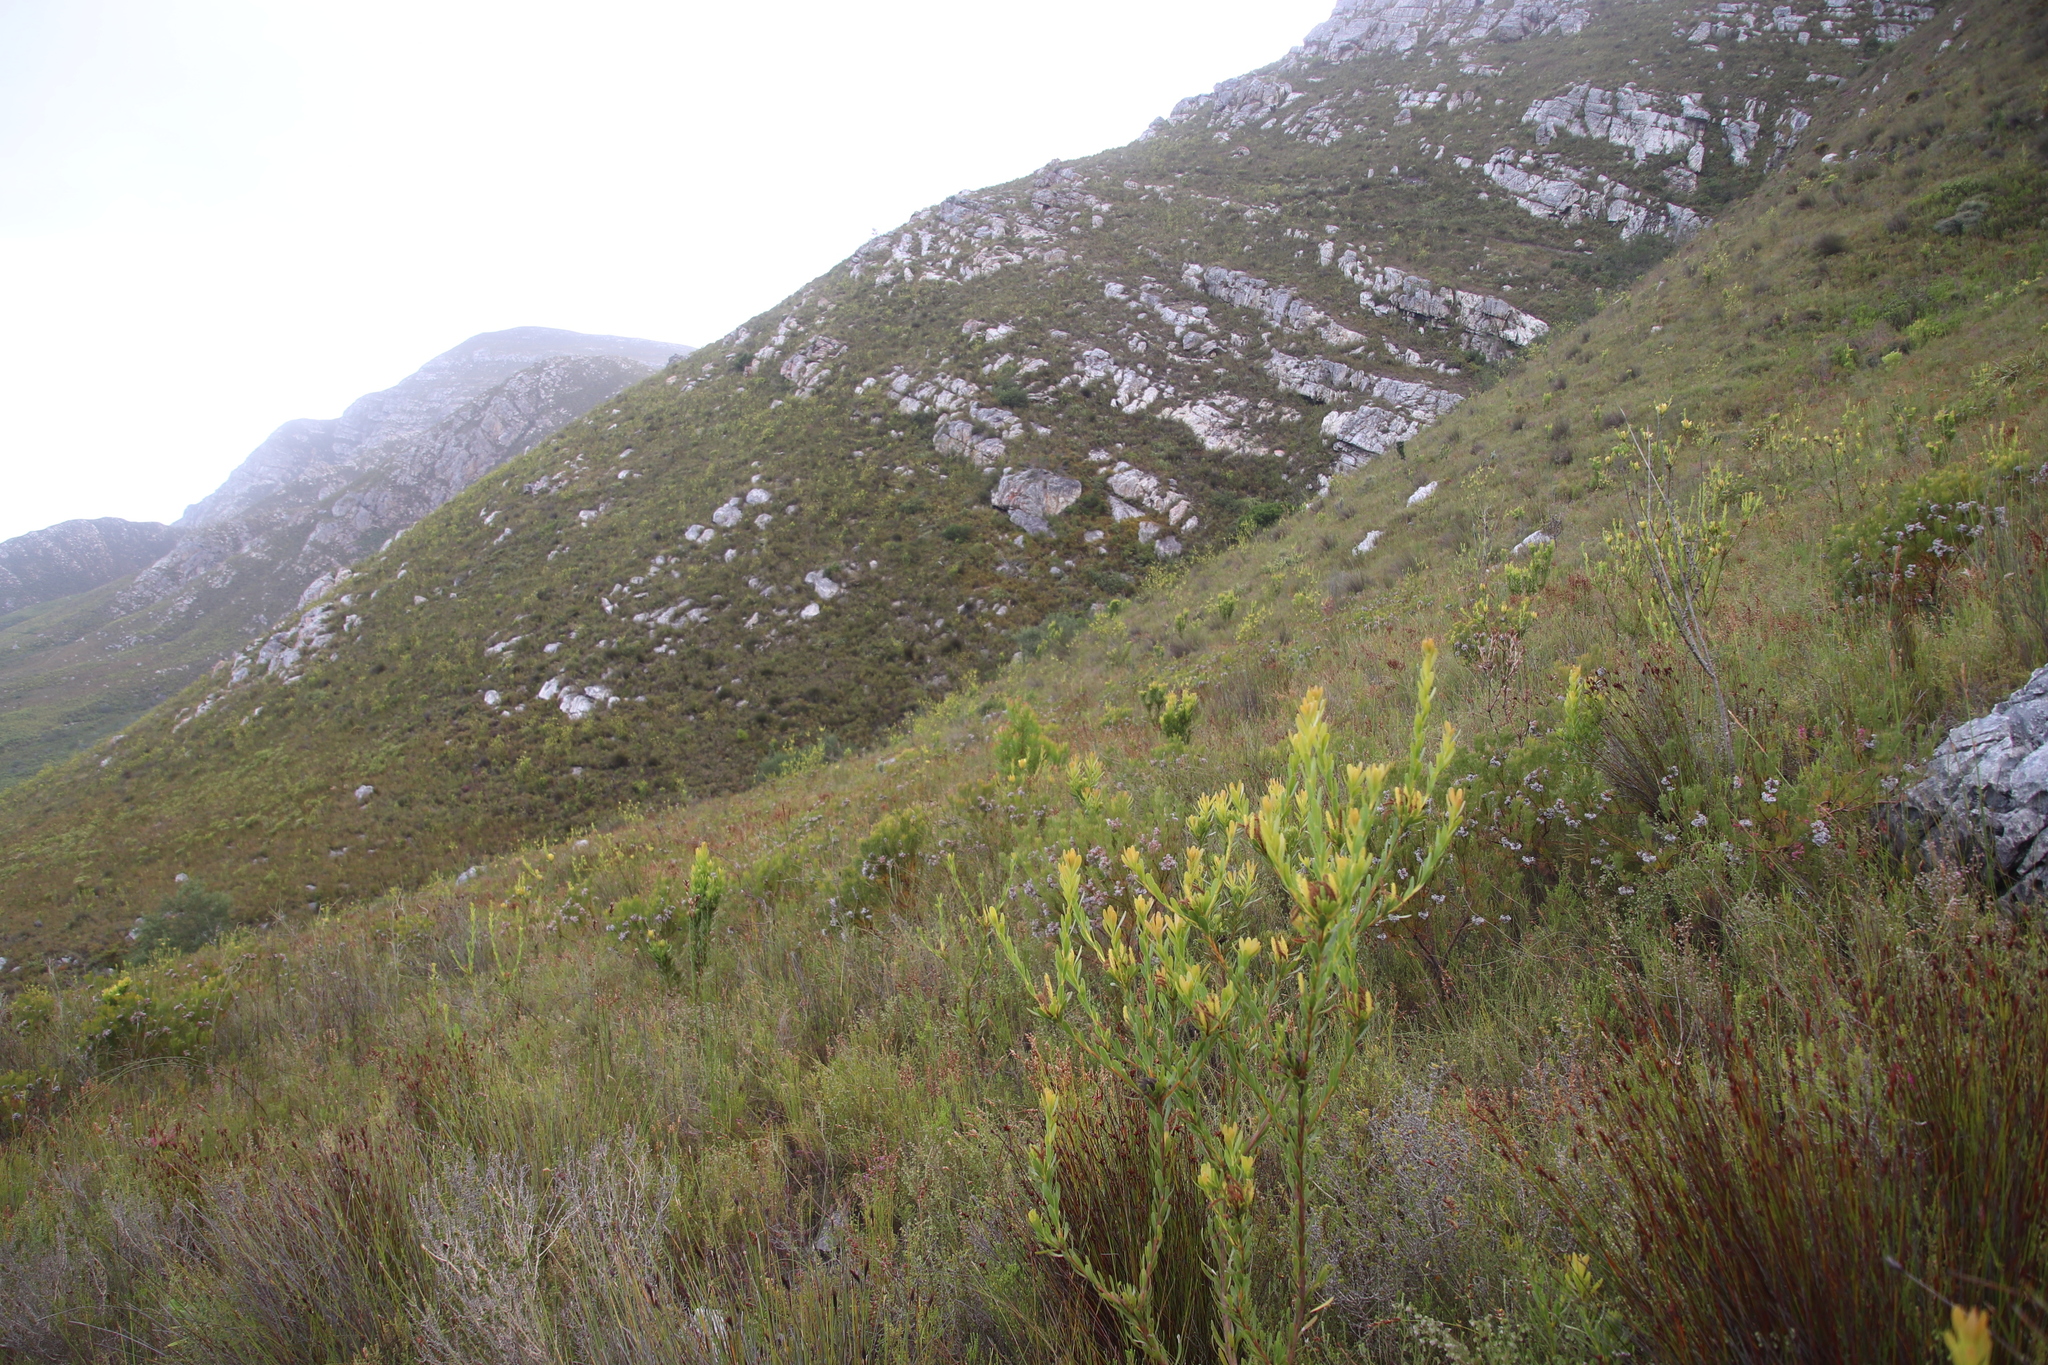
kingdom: Plantae
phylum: Tracheophyta
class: Magnoliopsida
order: Proteales
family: Proteaceae
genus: Aulax
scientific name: Aulax umbellata
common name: Broad-leaf featherbush
